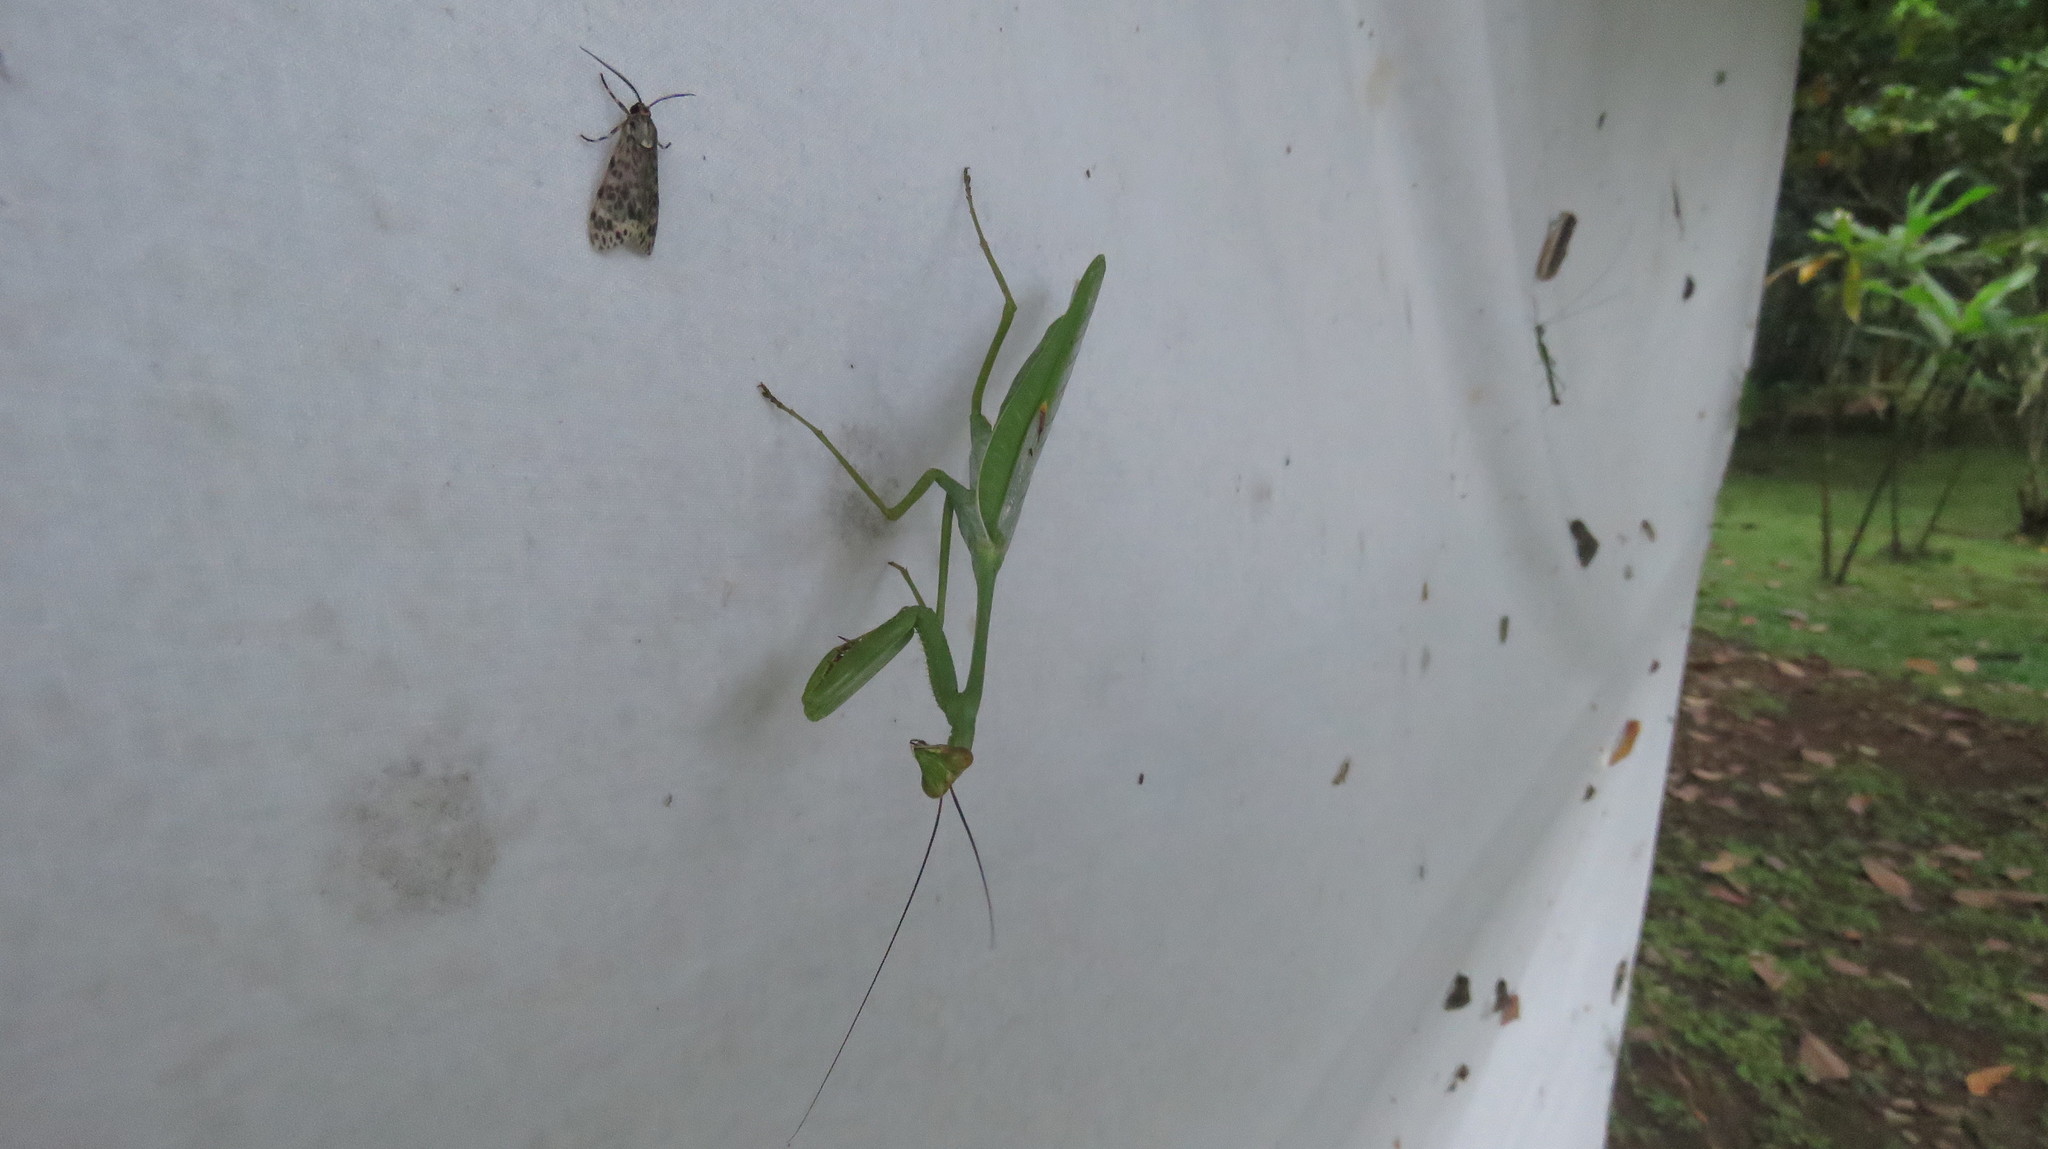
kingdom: Animalia
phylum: Arthropoda
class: Insecta
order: Mantodea
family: Mantidae
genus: Stagmatoptera
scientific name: Stagmatoptera septentrionalis
